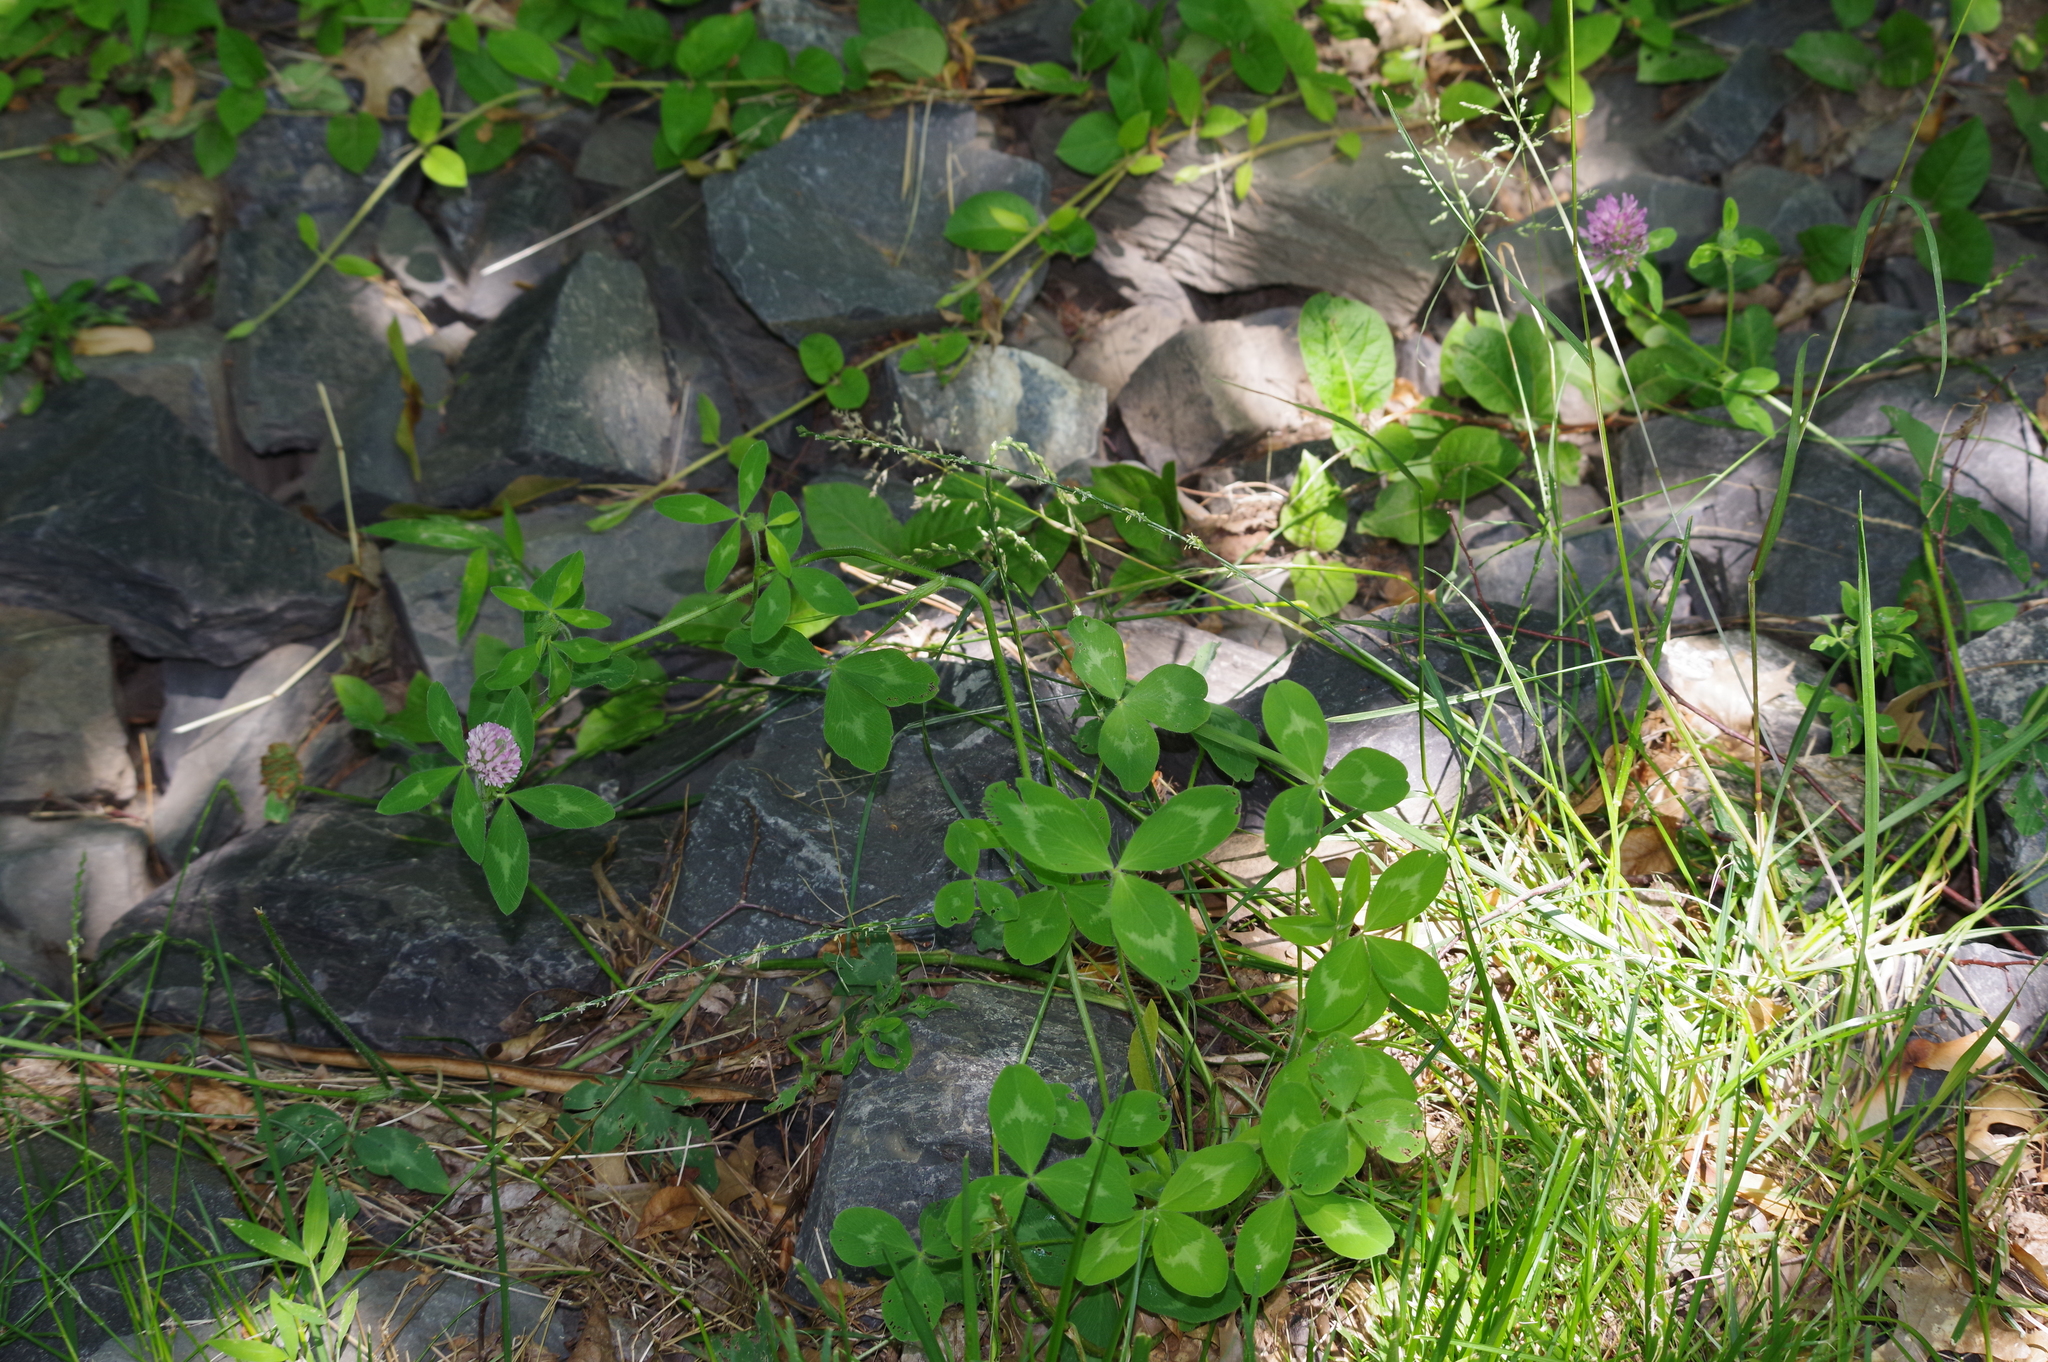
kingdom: Plantae
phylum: Tracheophyta
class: Magnoliopsida
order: Fabales
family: Fabaceae
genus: Trifolium
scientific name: Trifolium pratense
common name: Red clover
